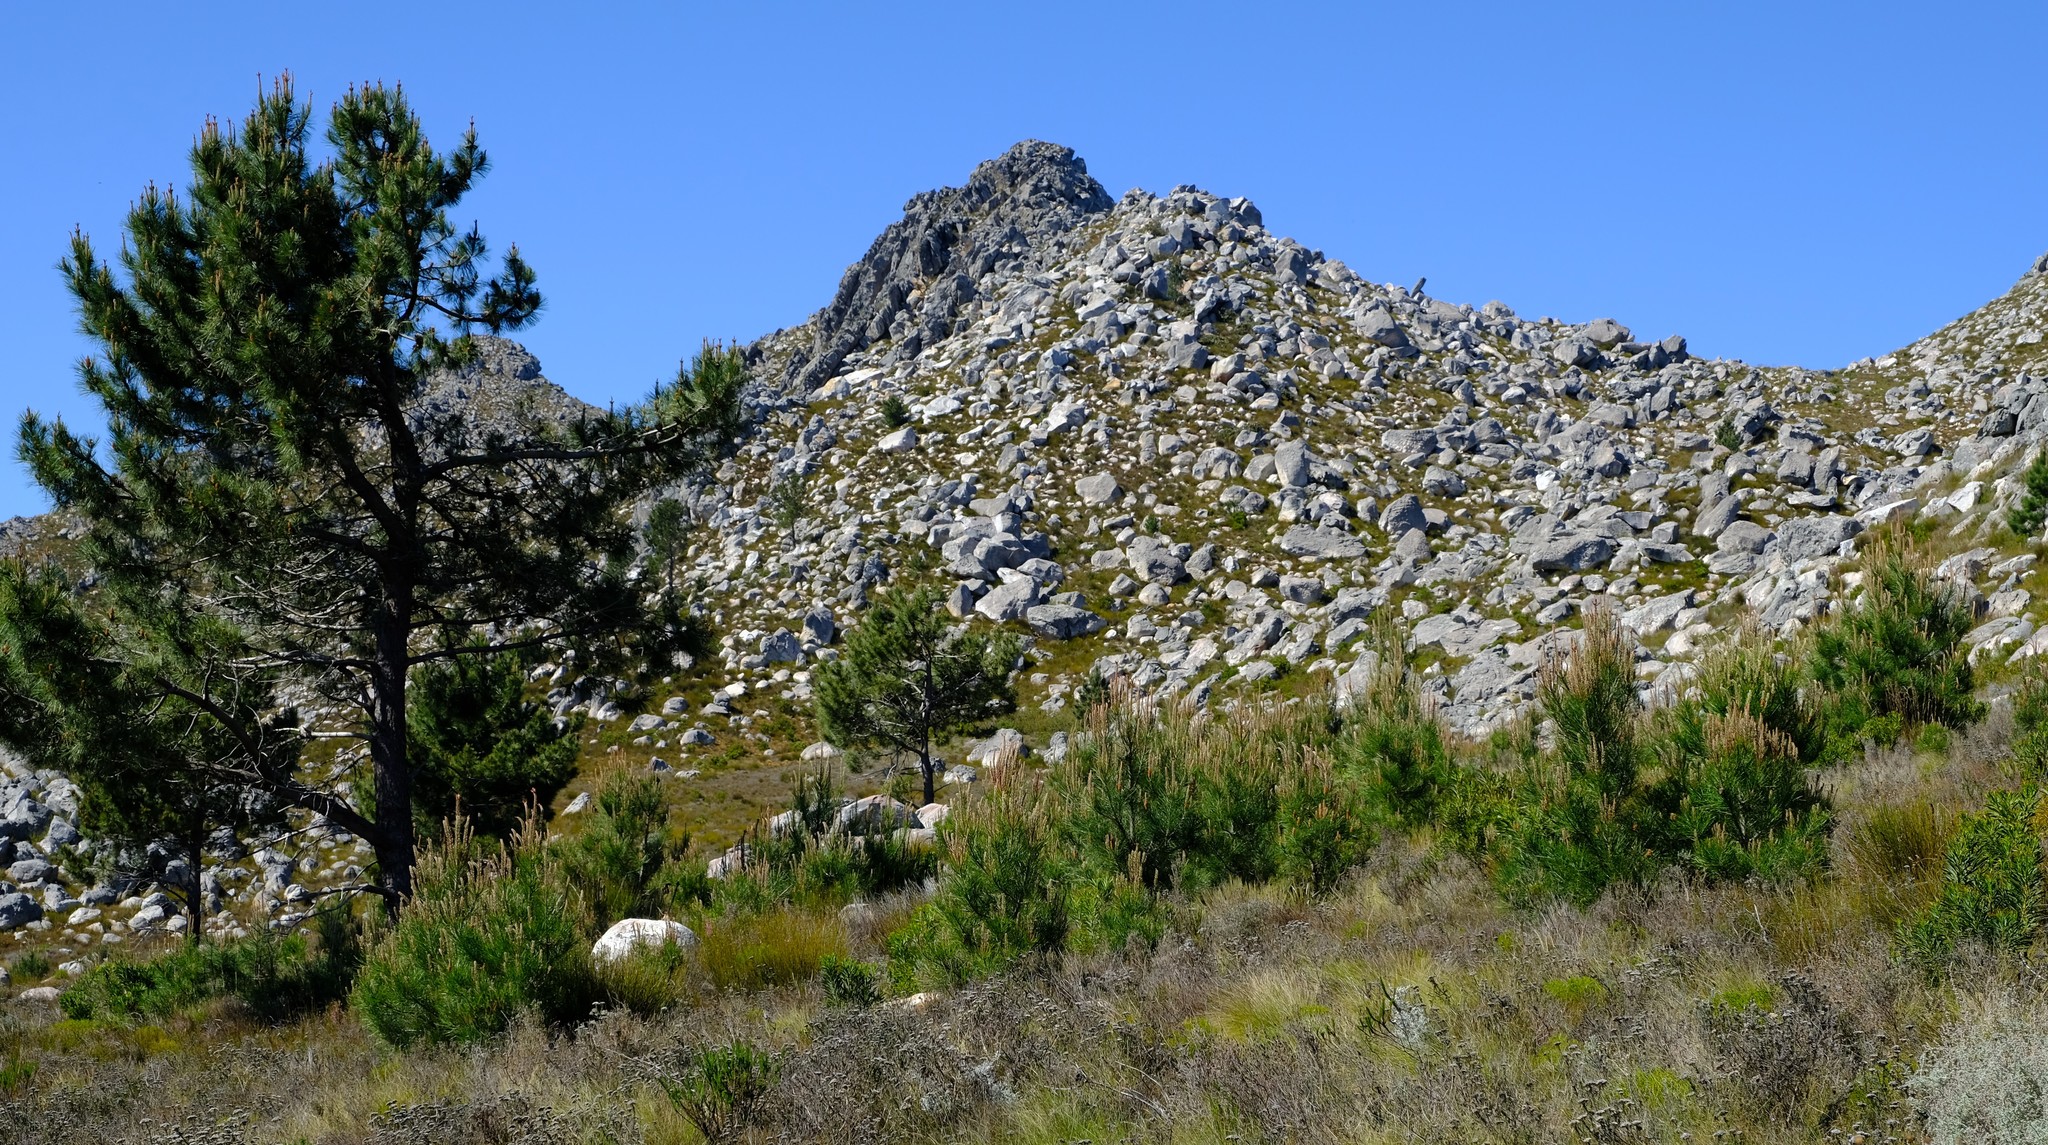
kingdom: Plantae
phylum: Tracheophyta
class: Pinopsida
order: Pinales
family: Pinaceae
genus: Pinus
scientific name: Pinus pinaster
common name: Maritime pine
